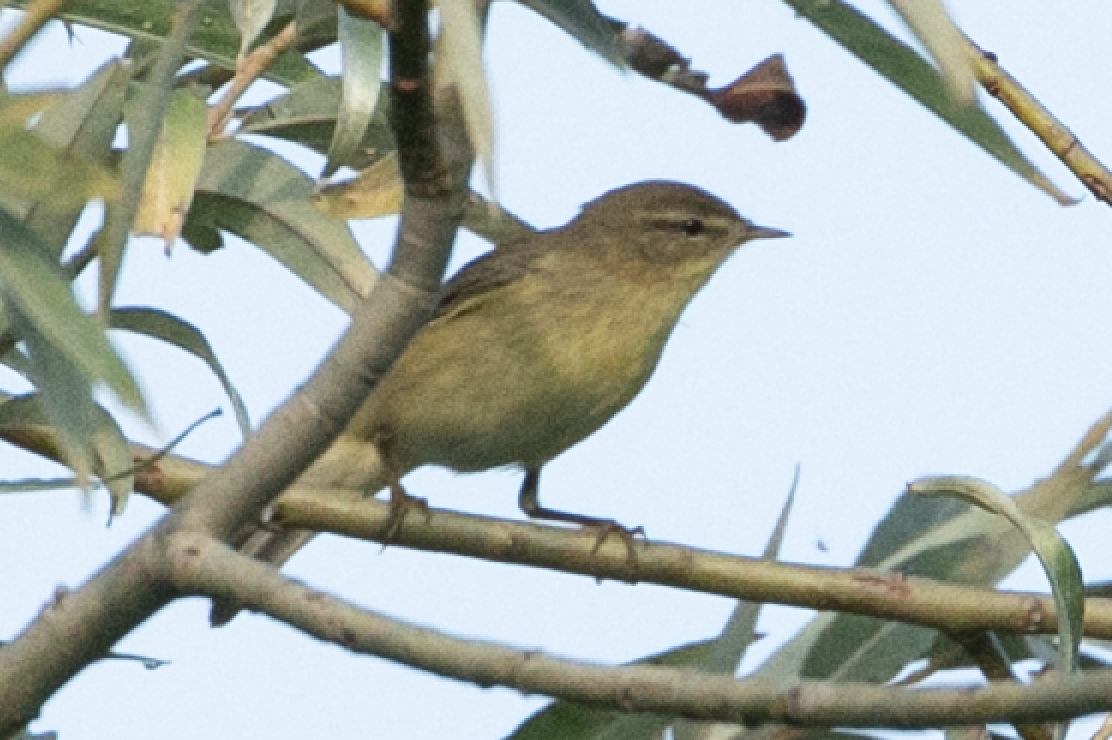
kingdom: Animalia
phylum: Chordata
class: Aves
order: Passeriformes
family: Phylloscopidae
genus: Phylloscopus
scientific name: Phylloscopus trochilus
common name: Willow warbler
